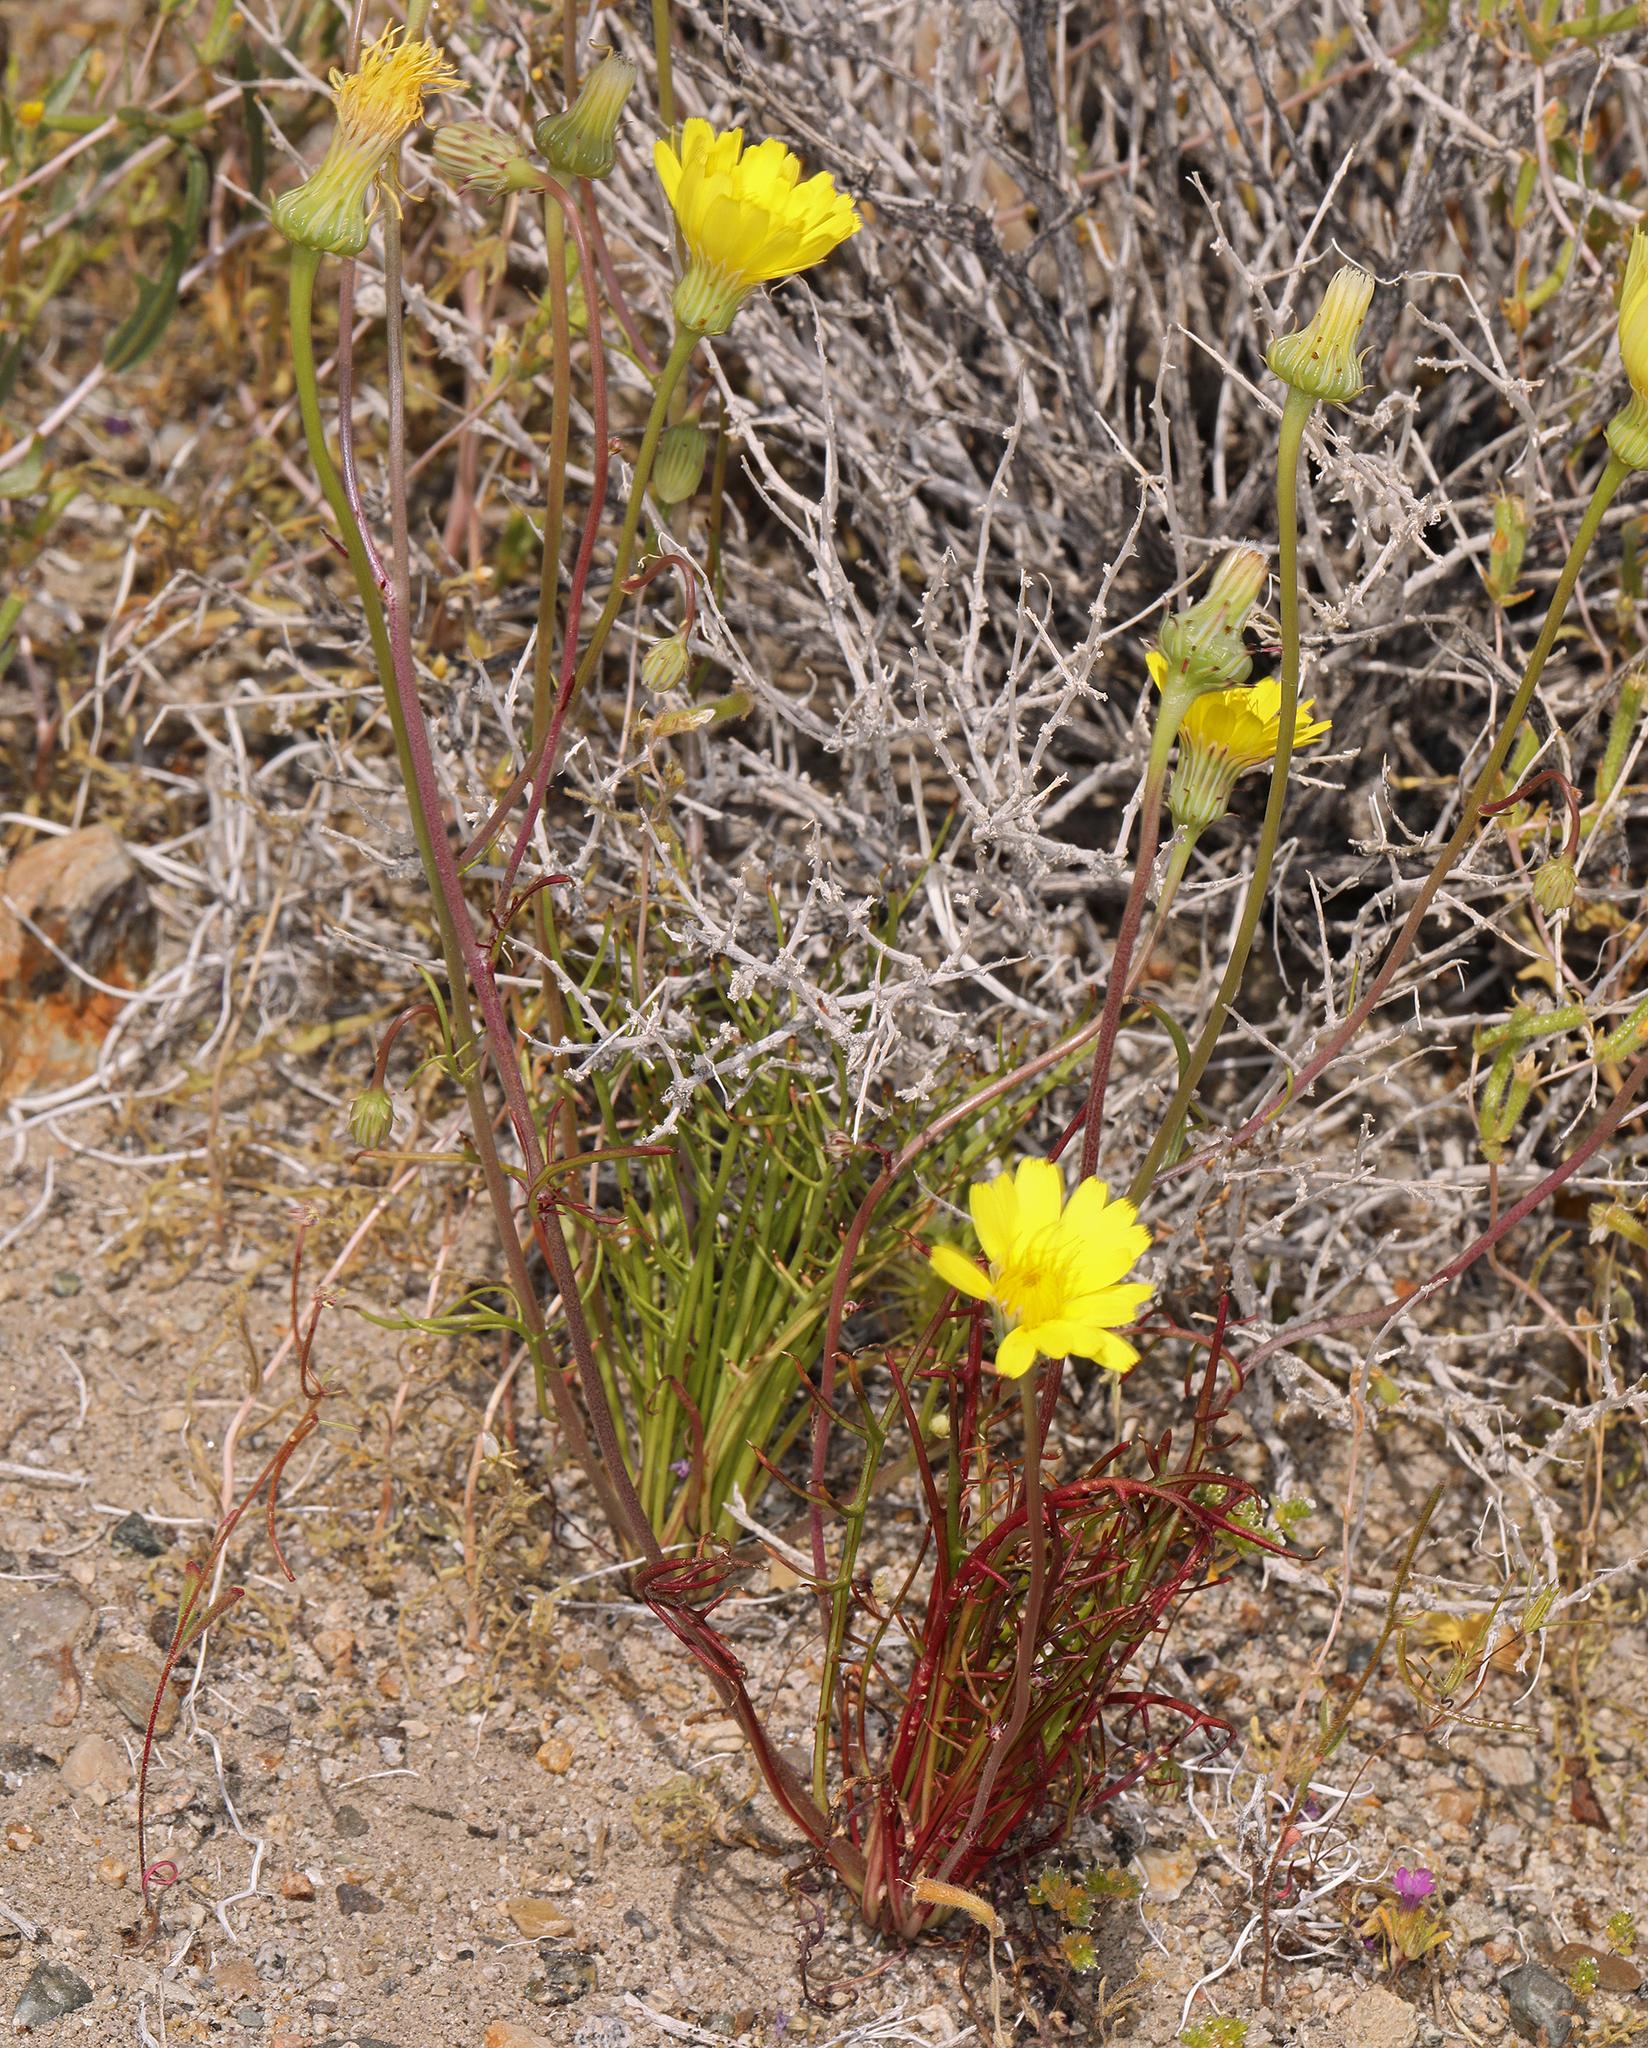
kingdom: Plantae
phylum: Tracheophyta
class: Magnoliopsida
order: Asterales
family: Asteraceae
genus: Malacothrix
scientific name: Malacothrix glabrata
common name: Smooth desert-dandelion
